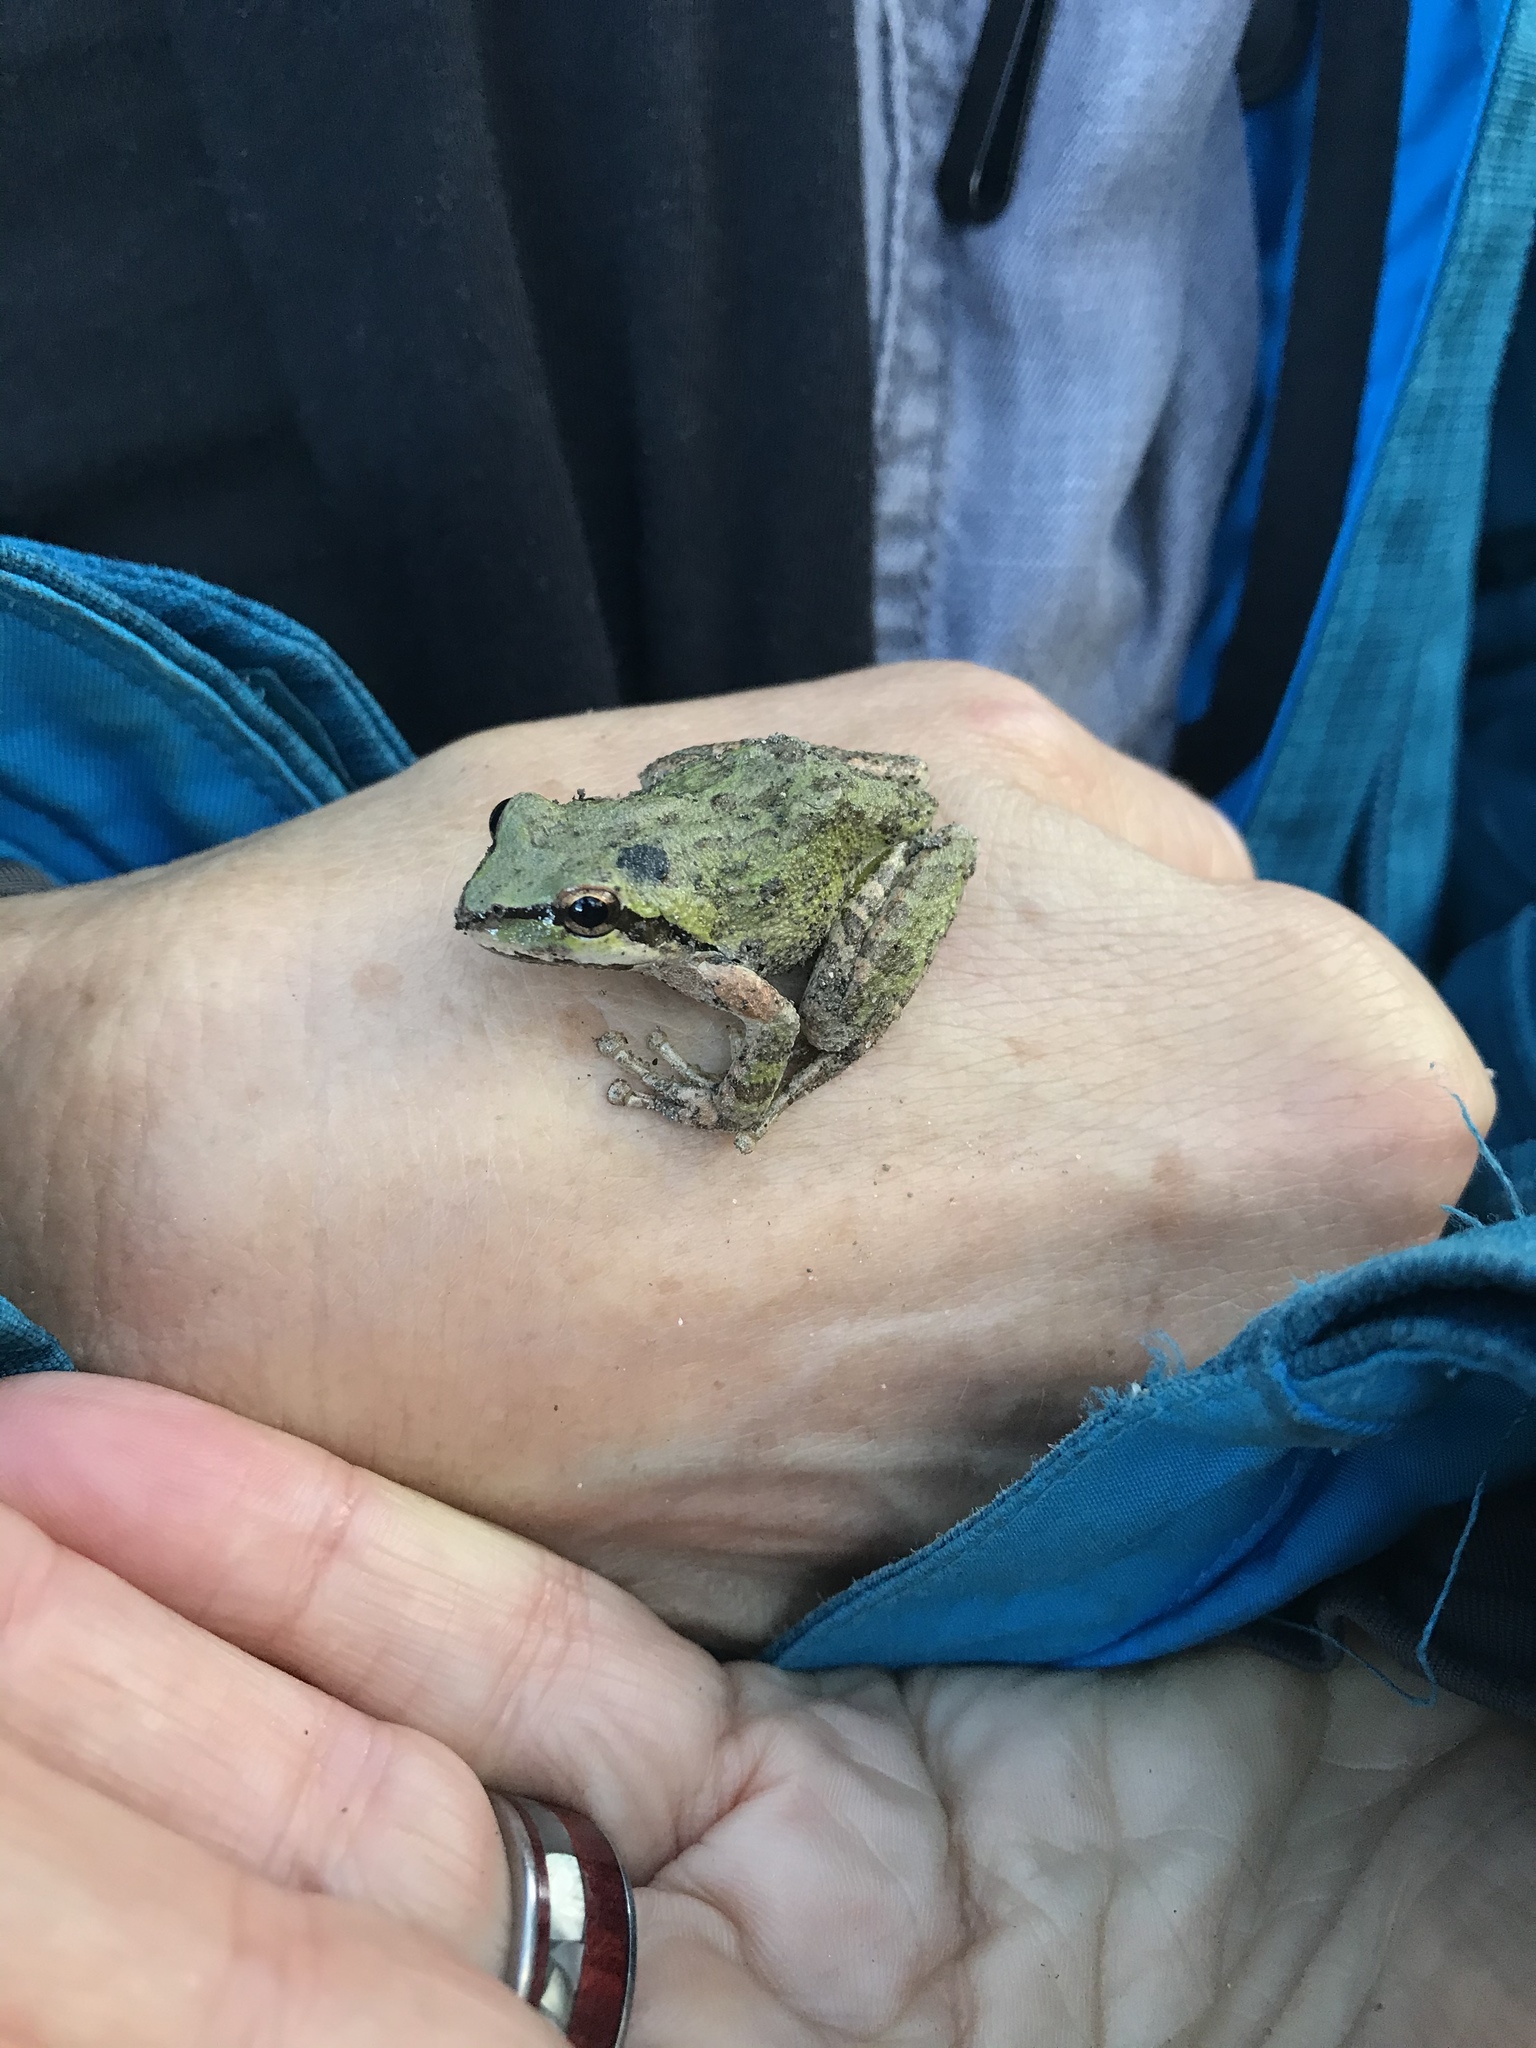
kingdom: Animalia
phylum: Chordata
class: Amphibia
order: Anura
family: Hylidae
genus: Pseudacris
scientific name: Pseudacris regilla
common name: Pacific chorus frog
